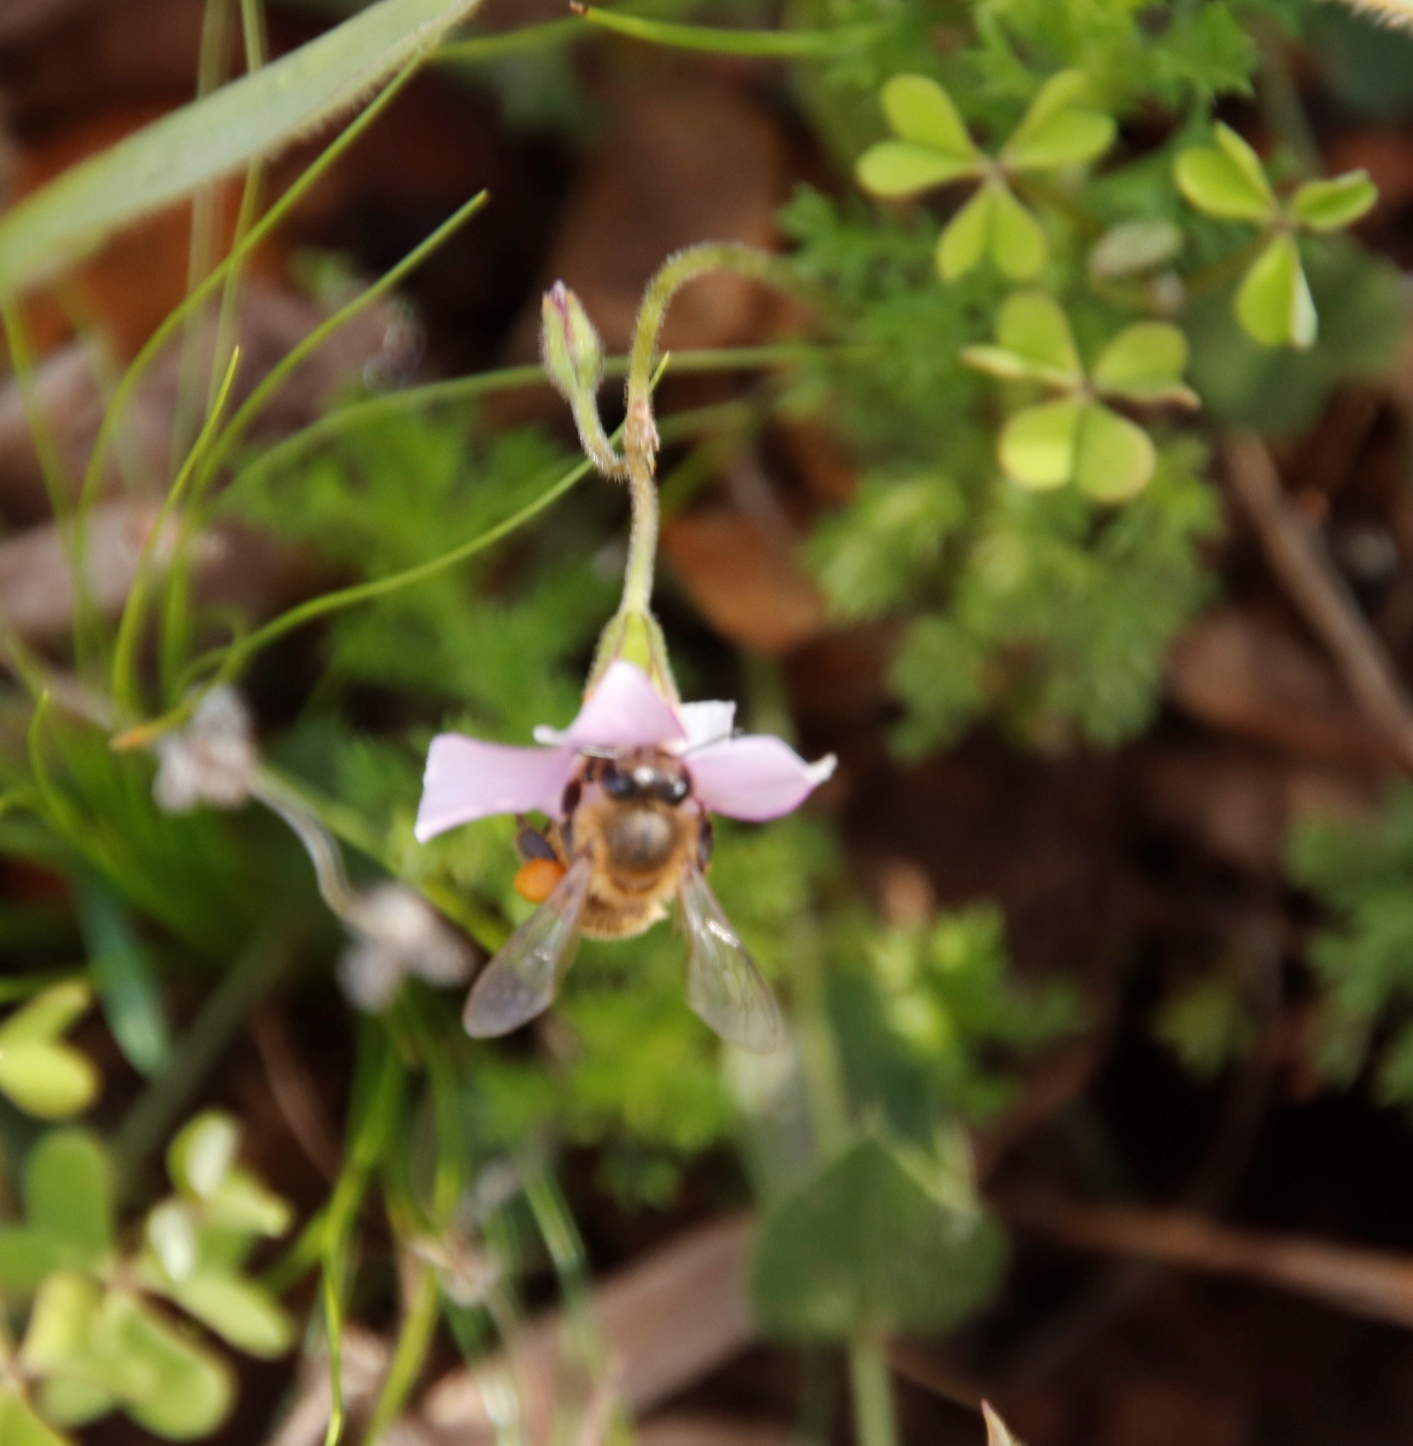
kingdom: Animalia
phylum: Arthropoda
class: Insecta
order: Hymenoptera
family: Apidae
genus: Apis
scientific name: Apis mellifera
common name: Honey bee
